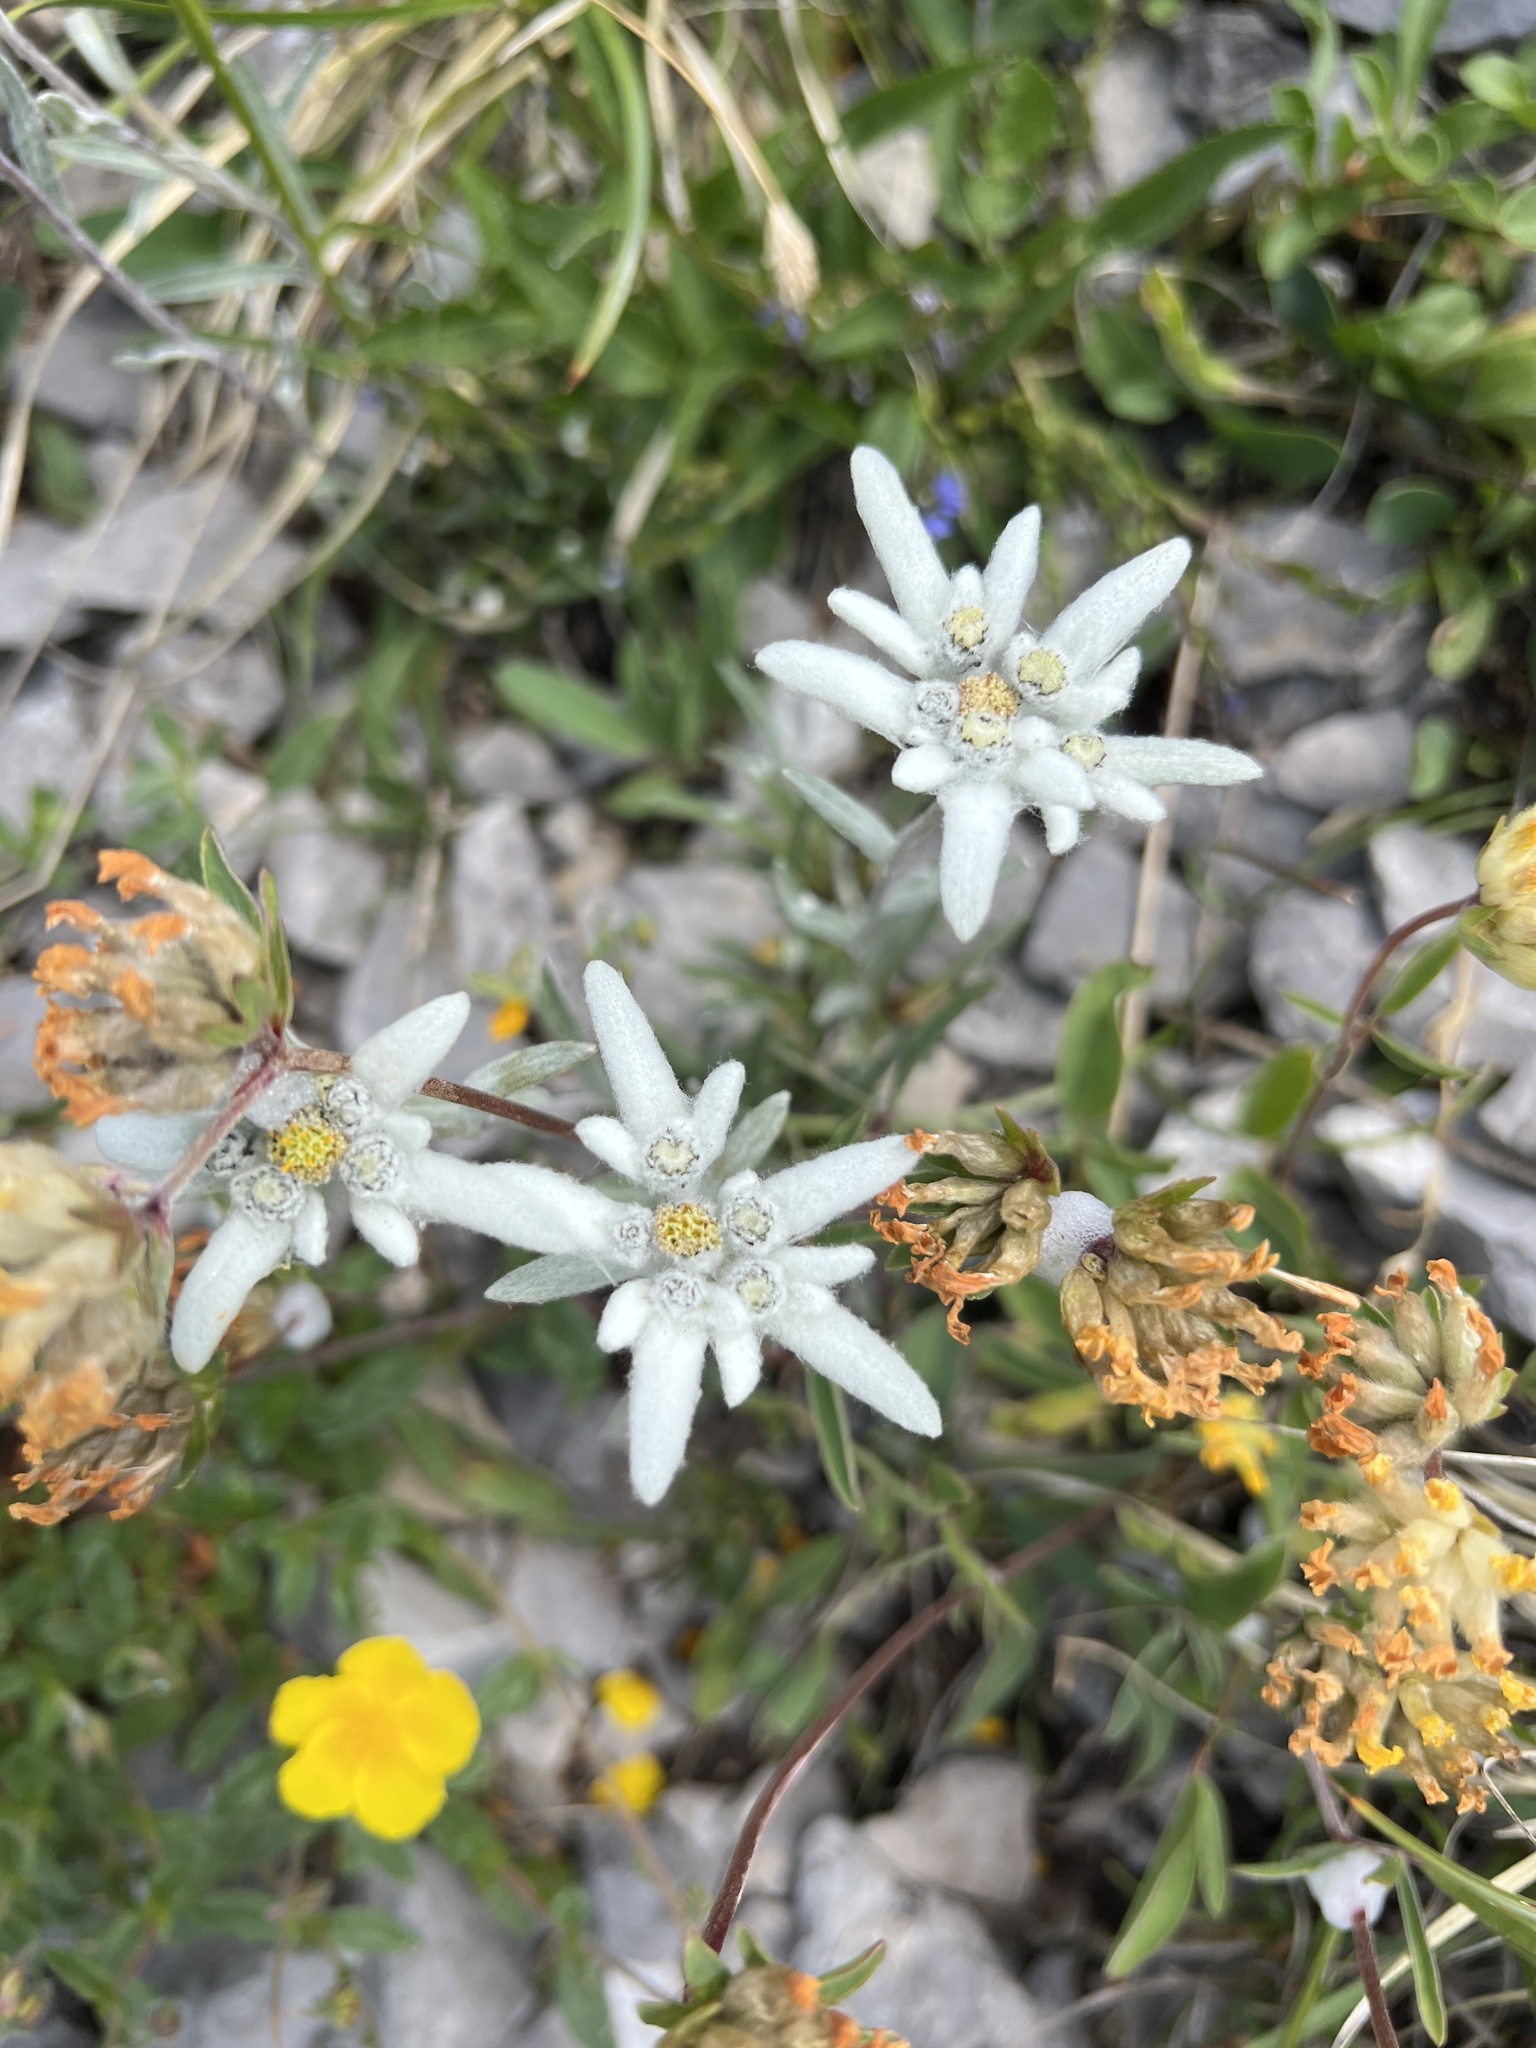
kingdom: Plantae
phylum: Tracheophyta
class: Magnoliopsida
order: Asterales
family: Asteraceae
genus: Leontopodium
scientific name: Leontopodium nivale
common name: Edelweiss
